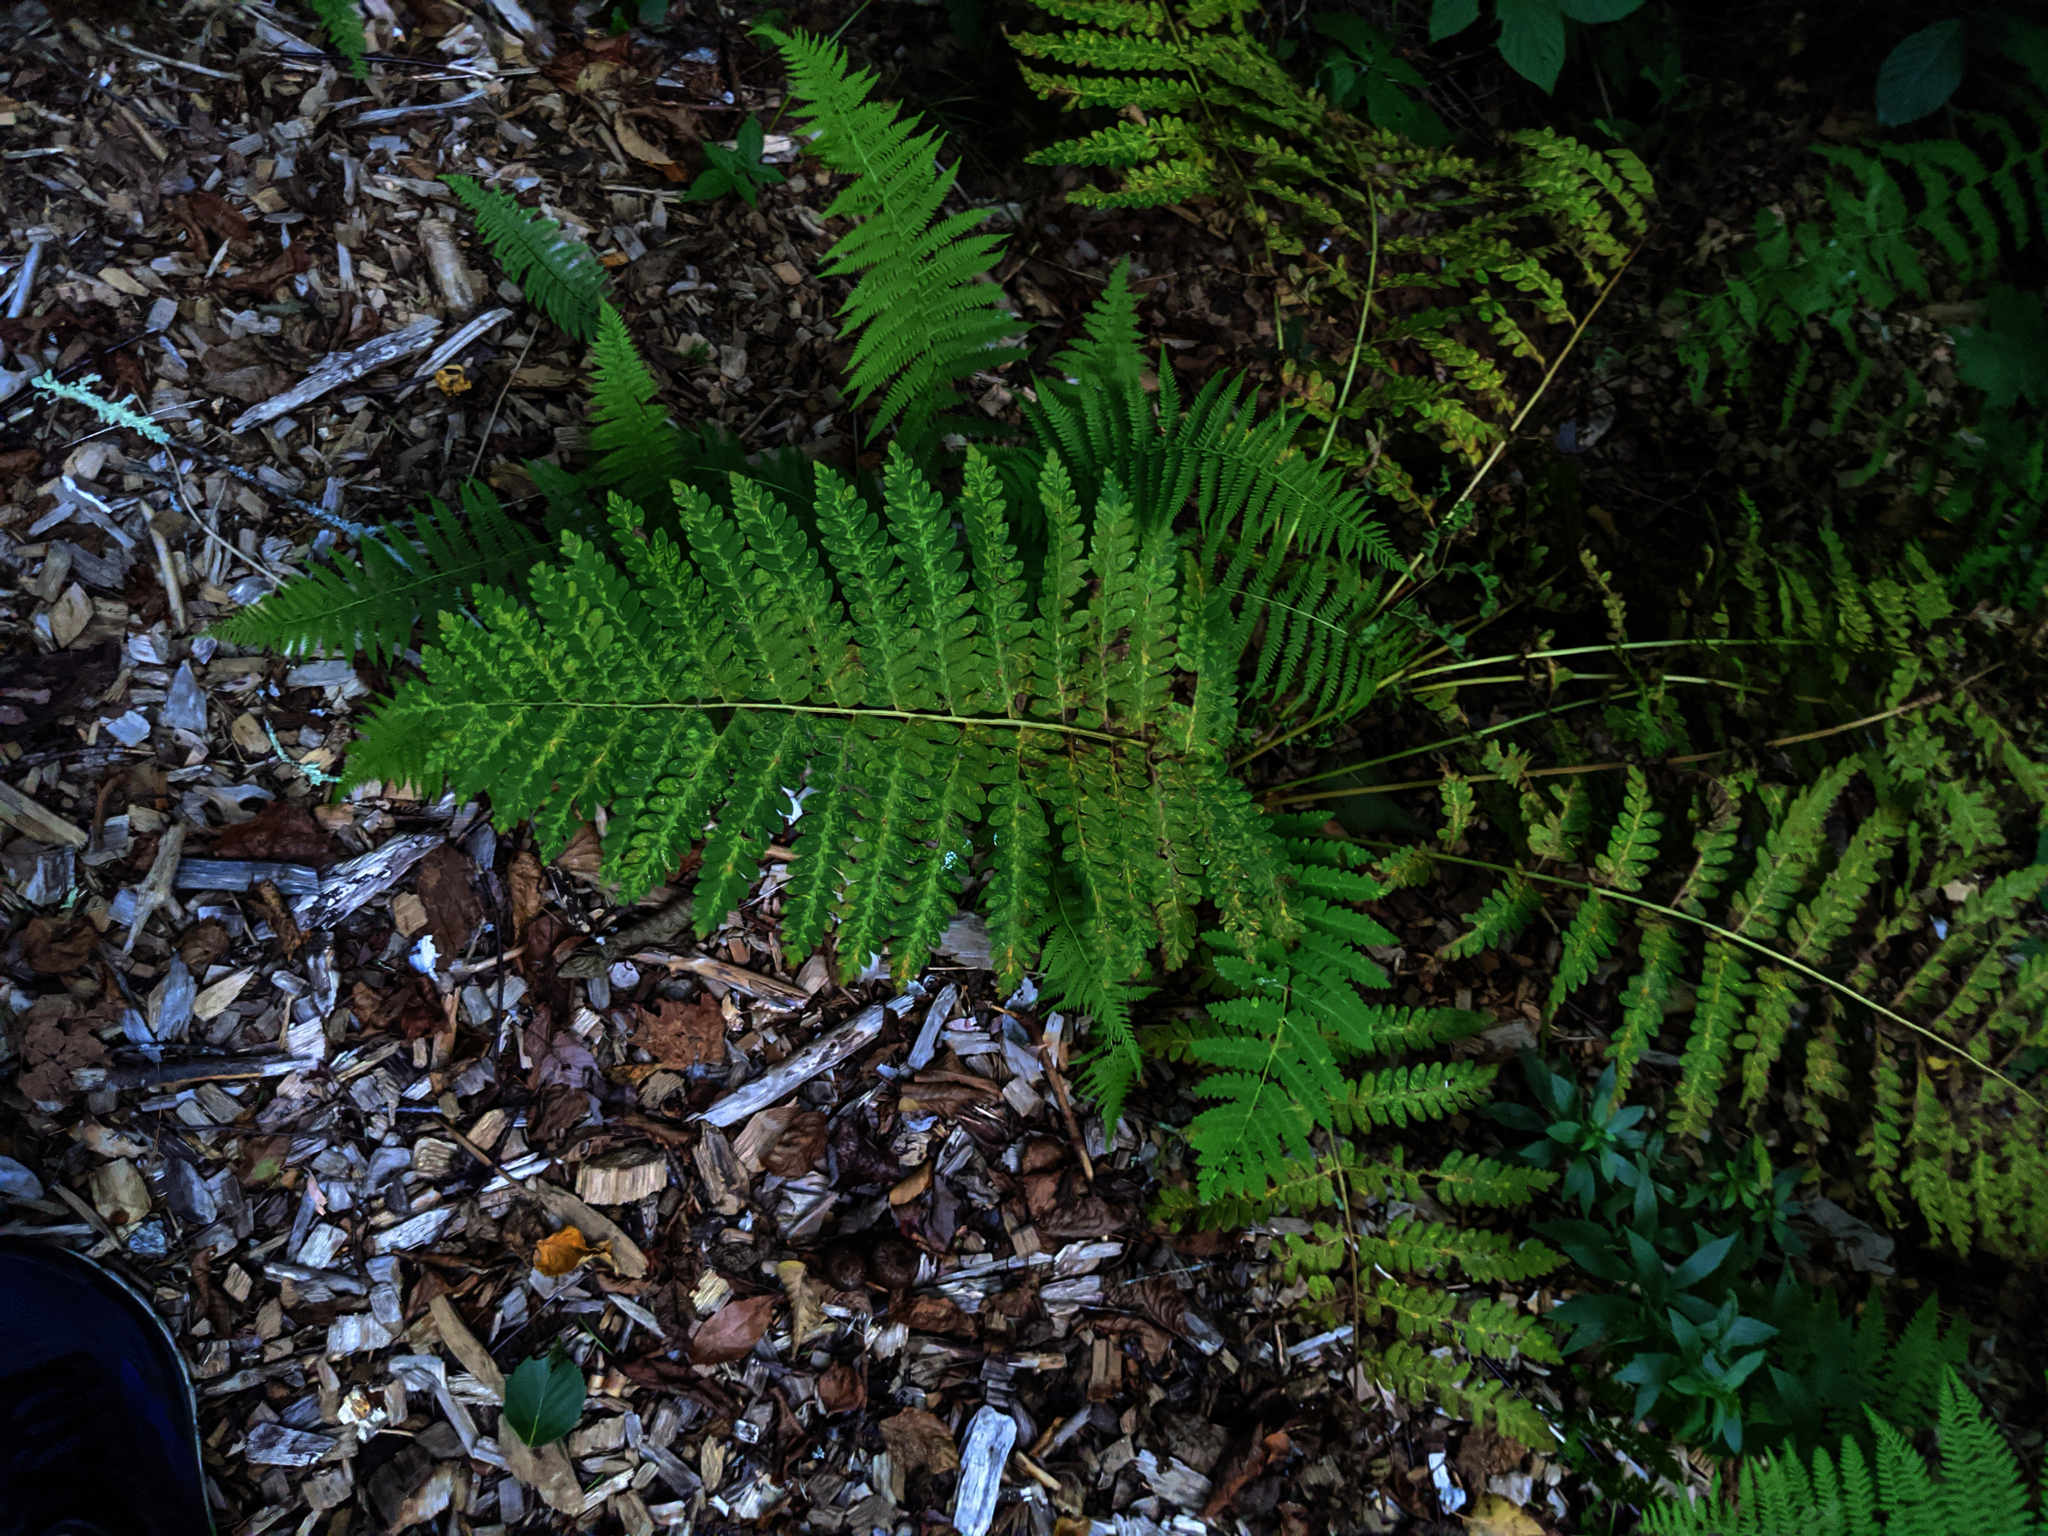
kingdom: Plantae
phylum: Tracheophyta
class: Polypodiopsida
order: Osmundales
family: Osmundaceae
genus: Claytosmunda
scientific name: Claytosmunda claytoniana
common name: Clayton's fern
